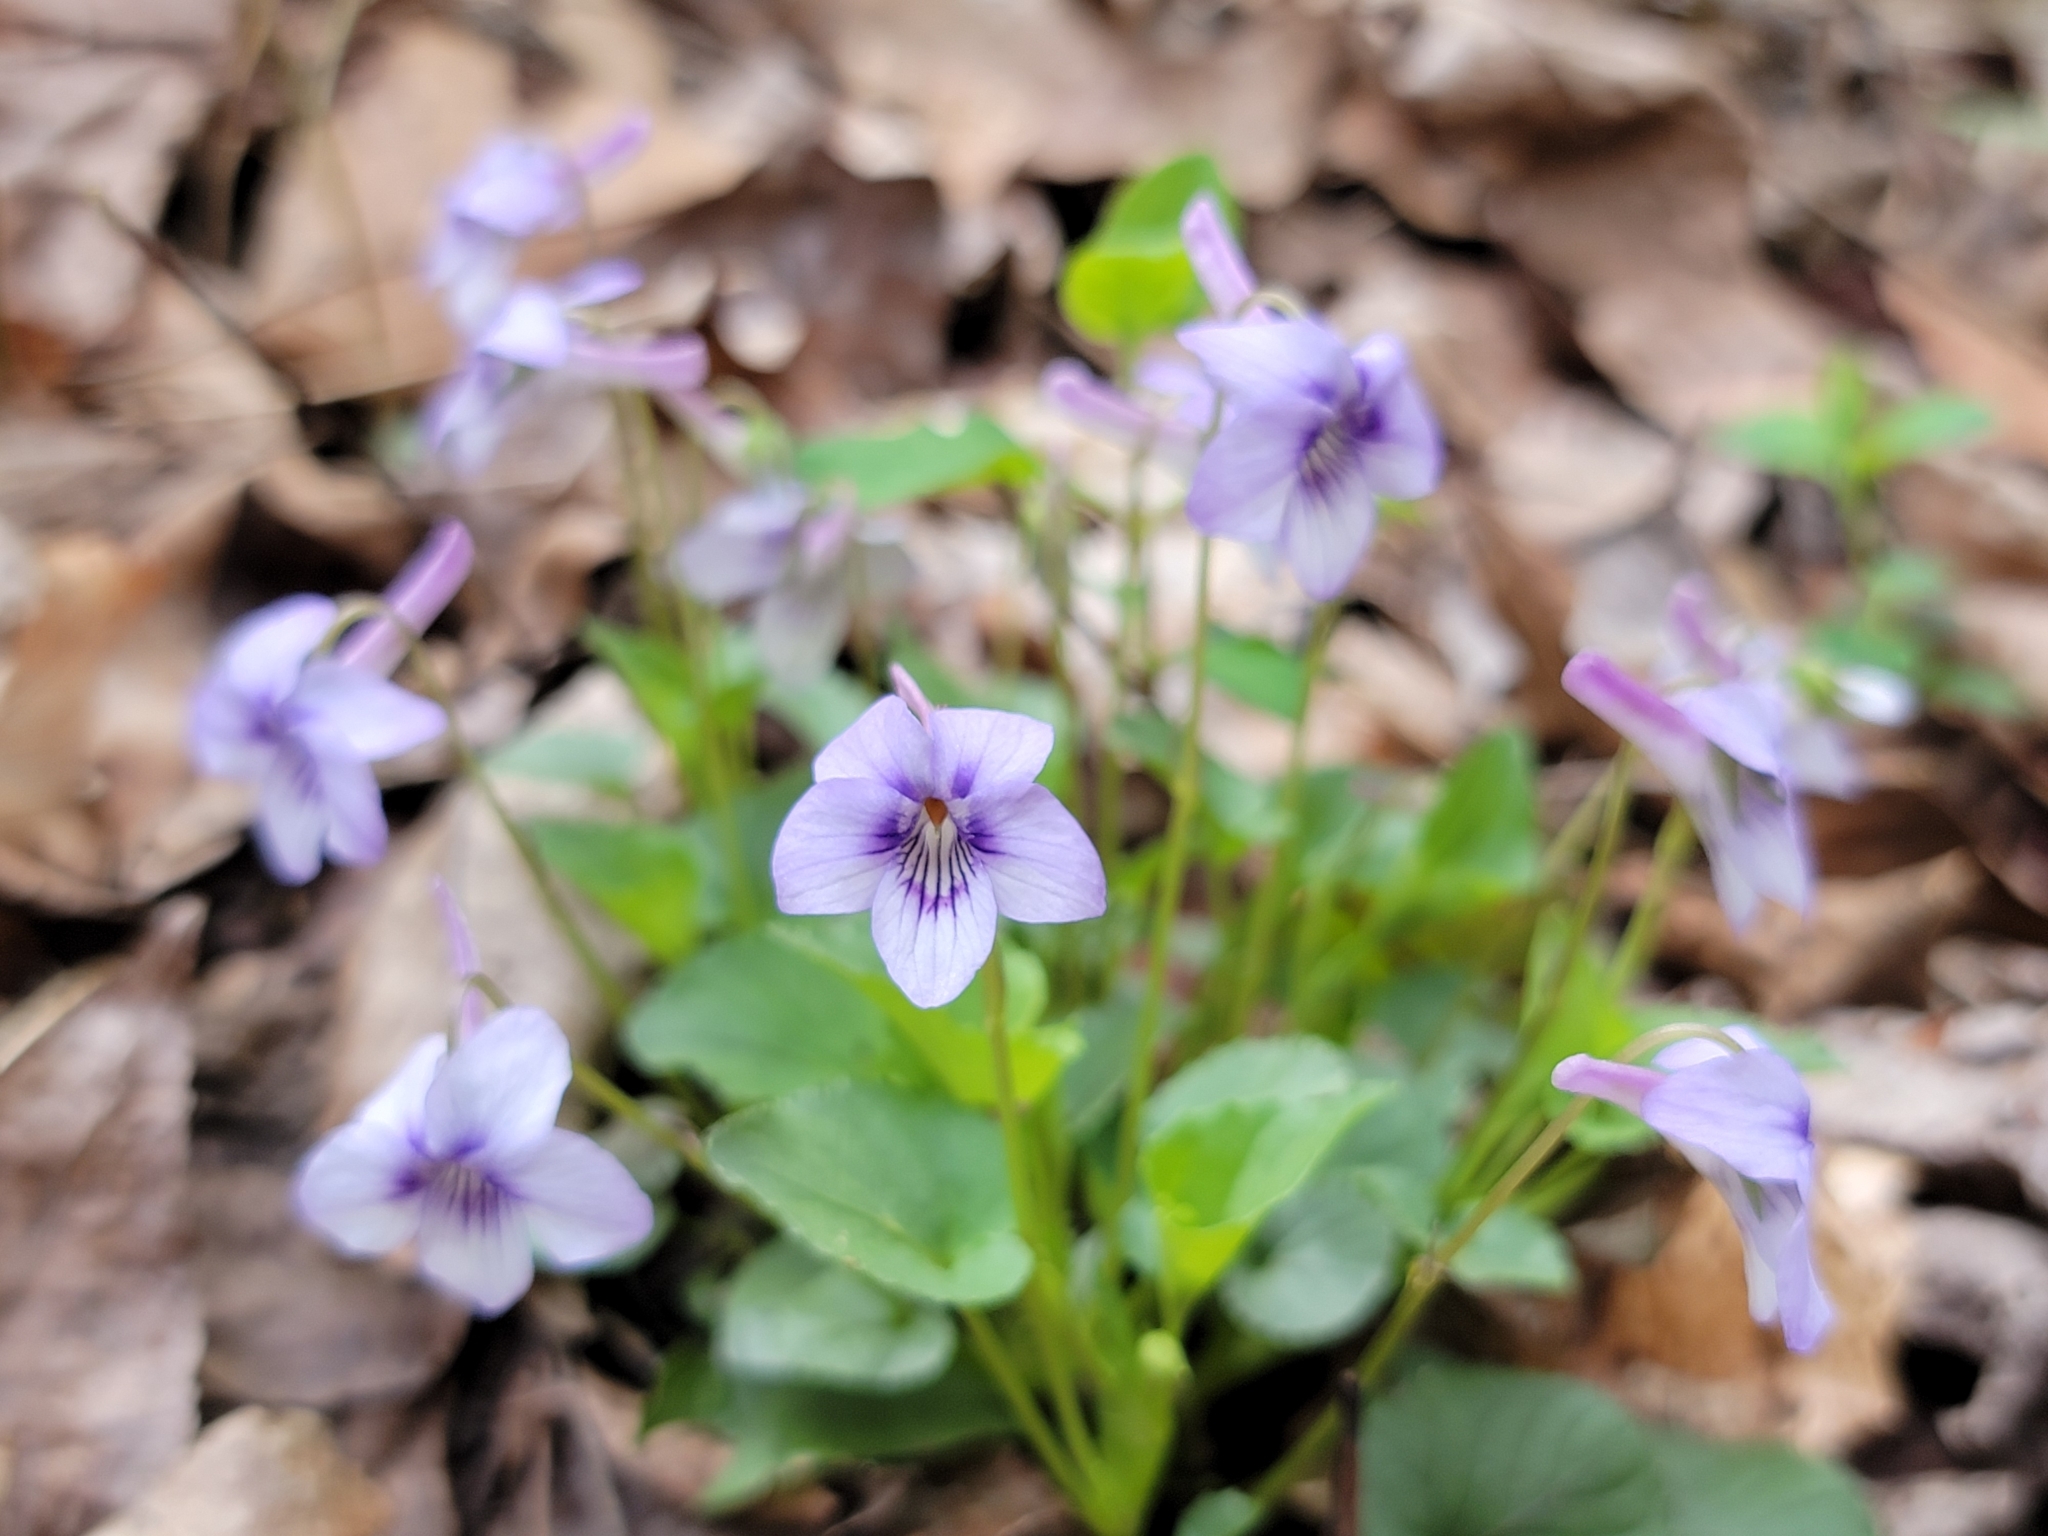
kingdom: Plantae
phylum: Tracheophyta
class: Magnoliopsida
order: Malpighiales
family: Violaceae
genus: Viola
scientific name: Viola rostrata
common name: Long-spur violet
